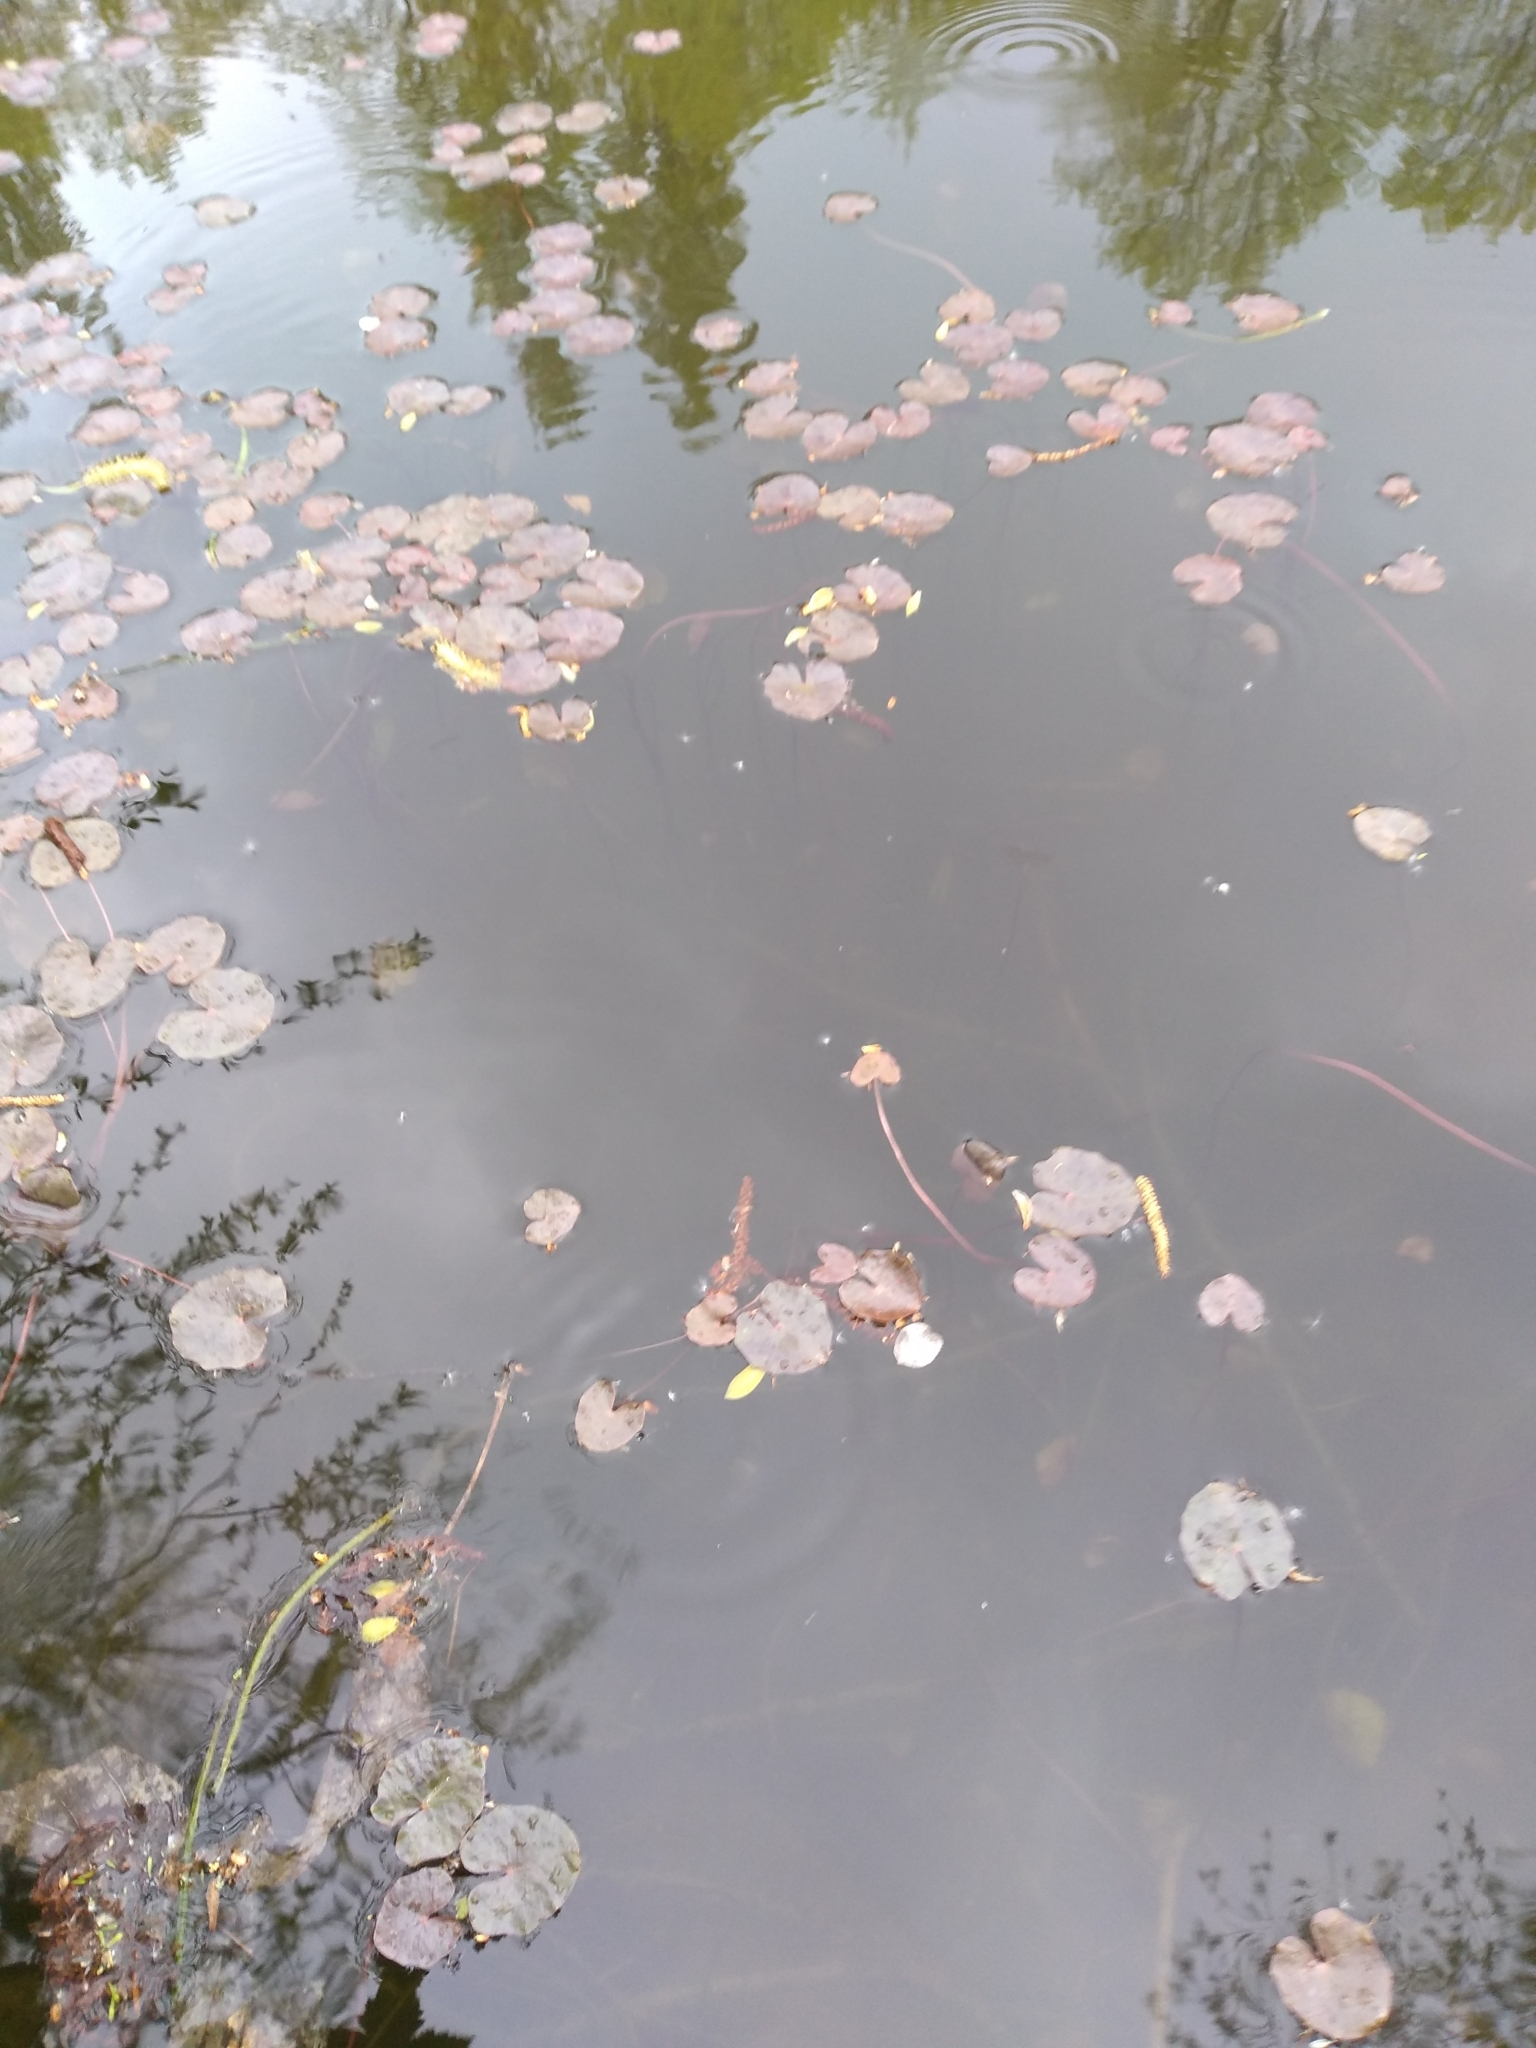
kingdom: Plantae
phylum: Tracheophyta
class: Magnoliopsida
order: Asterales
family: Menyanthaceae
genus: Nymphoides
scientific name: Nymphoides peltata
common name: Fringed water-lily
